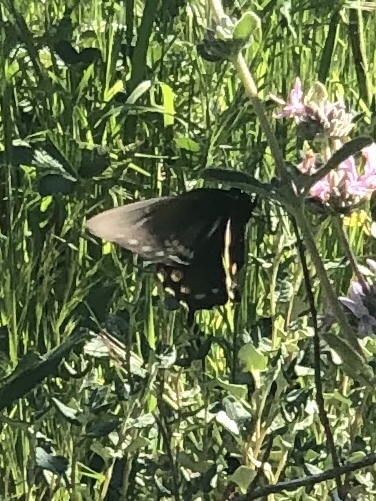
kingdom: Animalia
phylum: Arthropoda
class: Insecta
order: Lepidoptera
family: Papilionidae
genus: Battus
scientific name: Battus philenor
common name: Pipevine swallowtail
